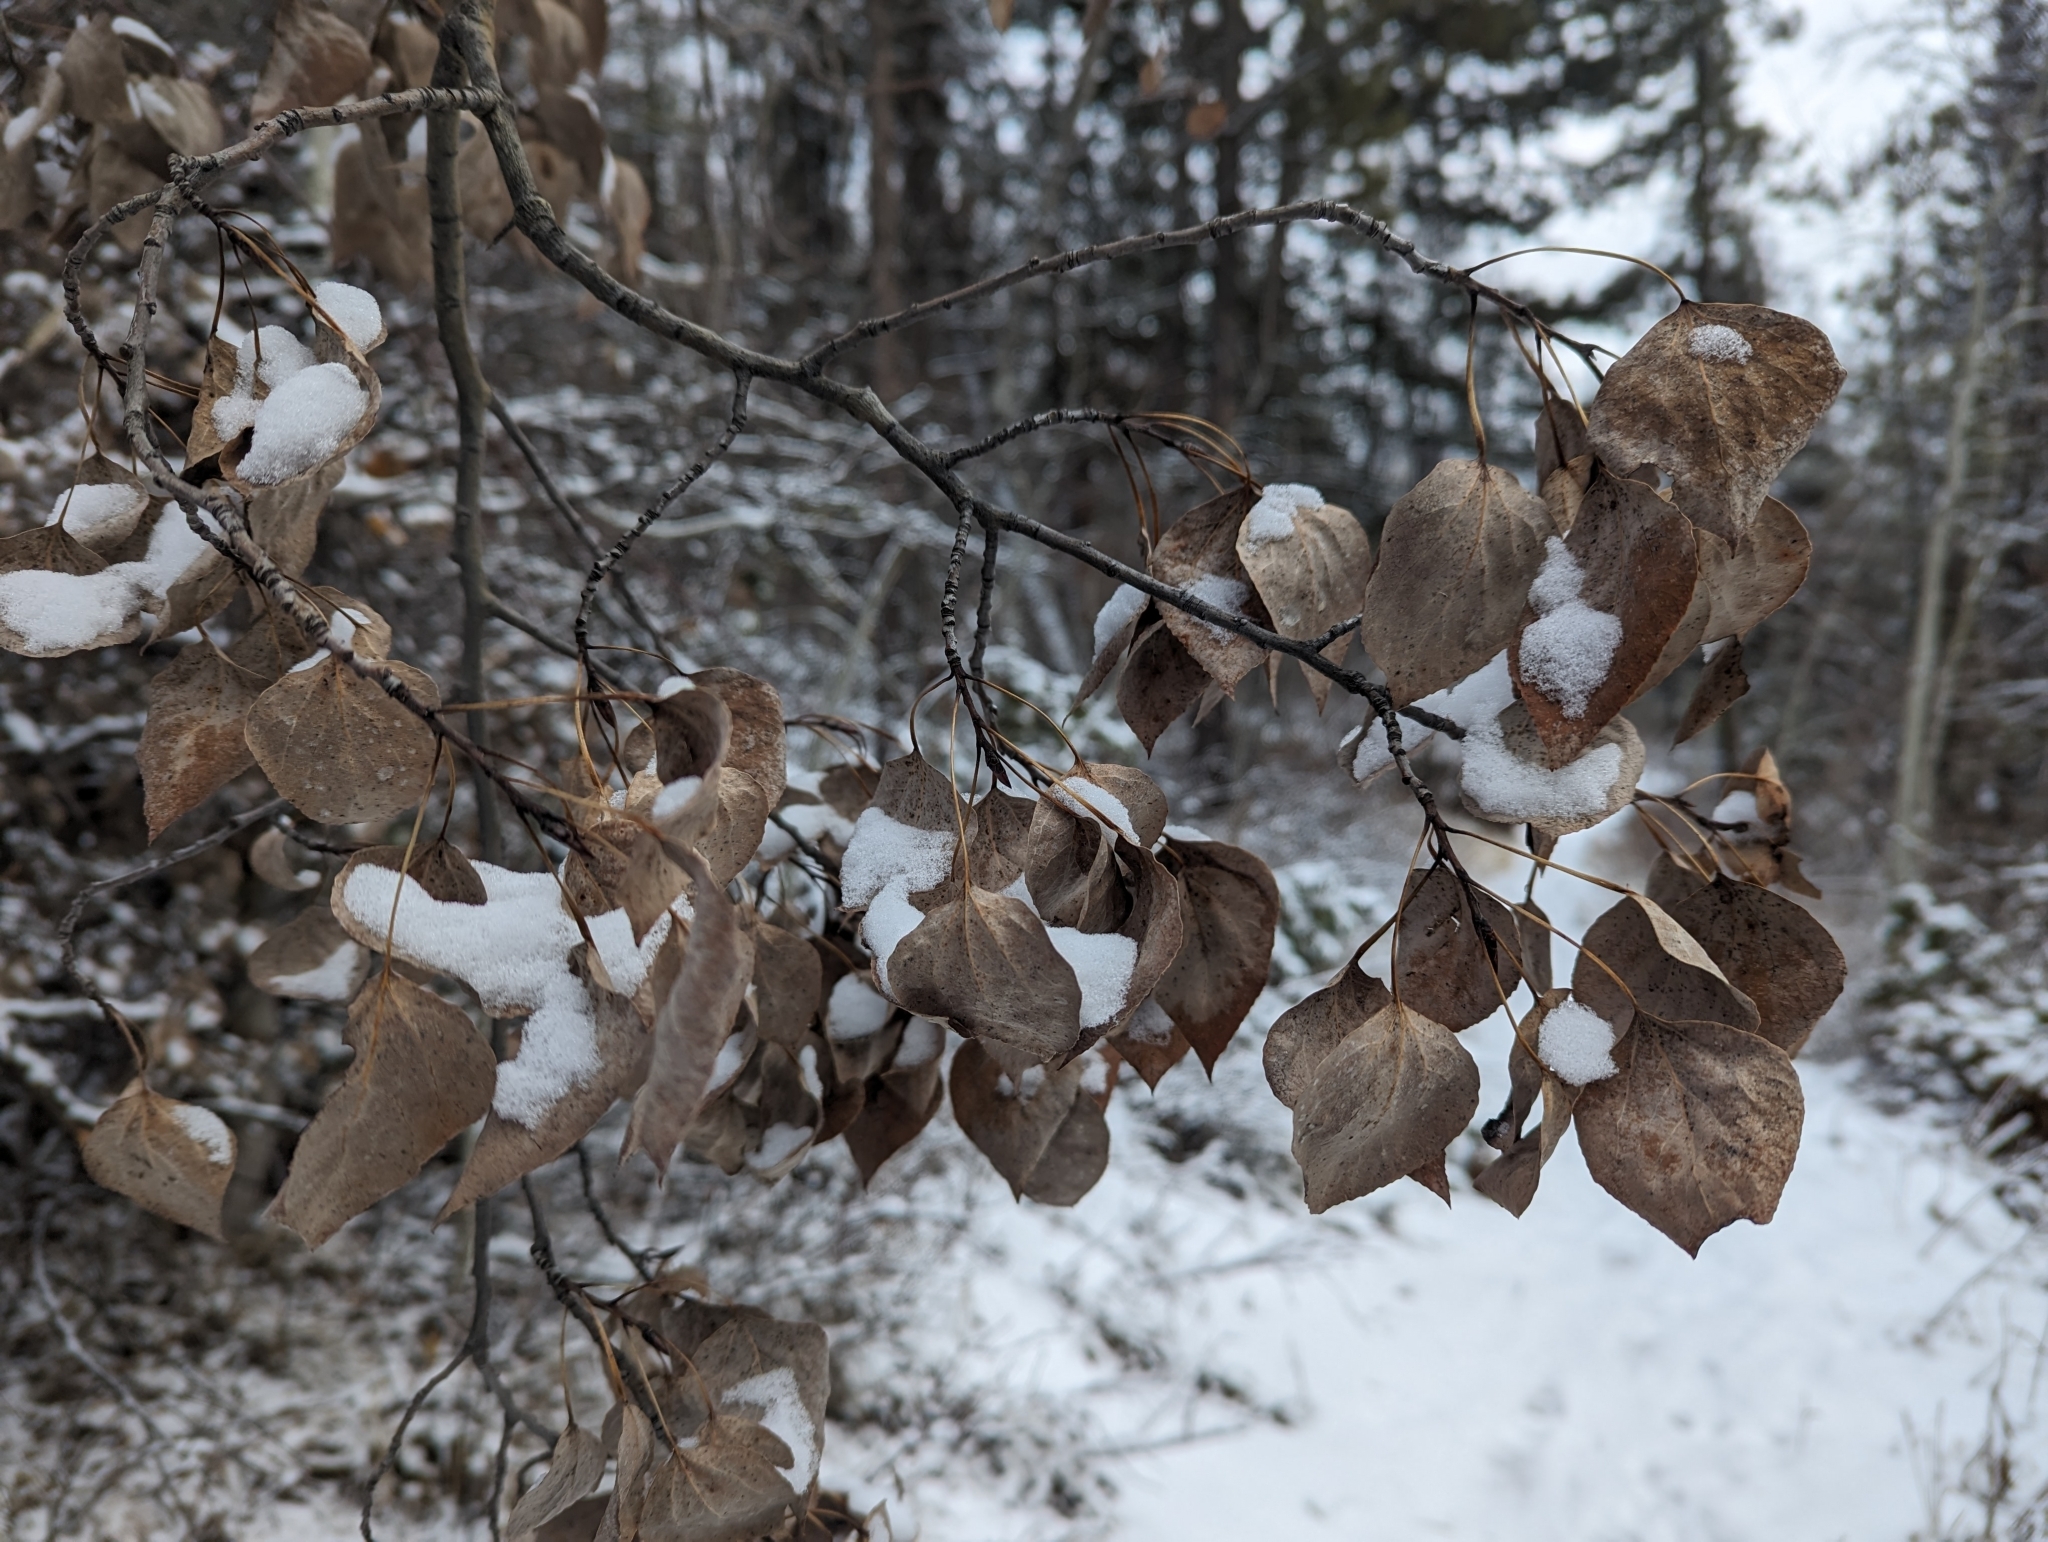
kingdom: Plantae
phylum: Tracheophyta
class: Magnoliopsida
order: Malpighiales
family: Salicaceae
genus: Populus
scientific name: Populus tremuloides
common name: Quaking aspen
